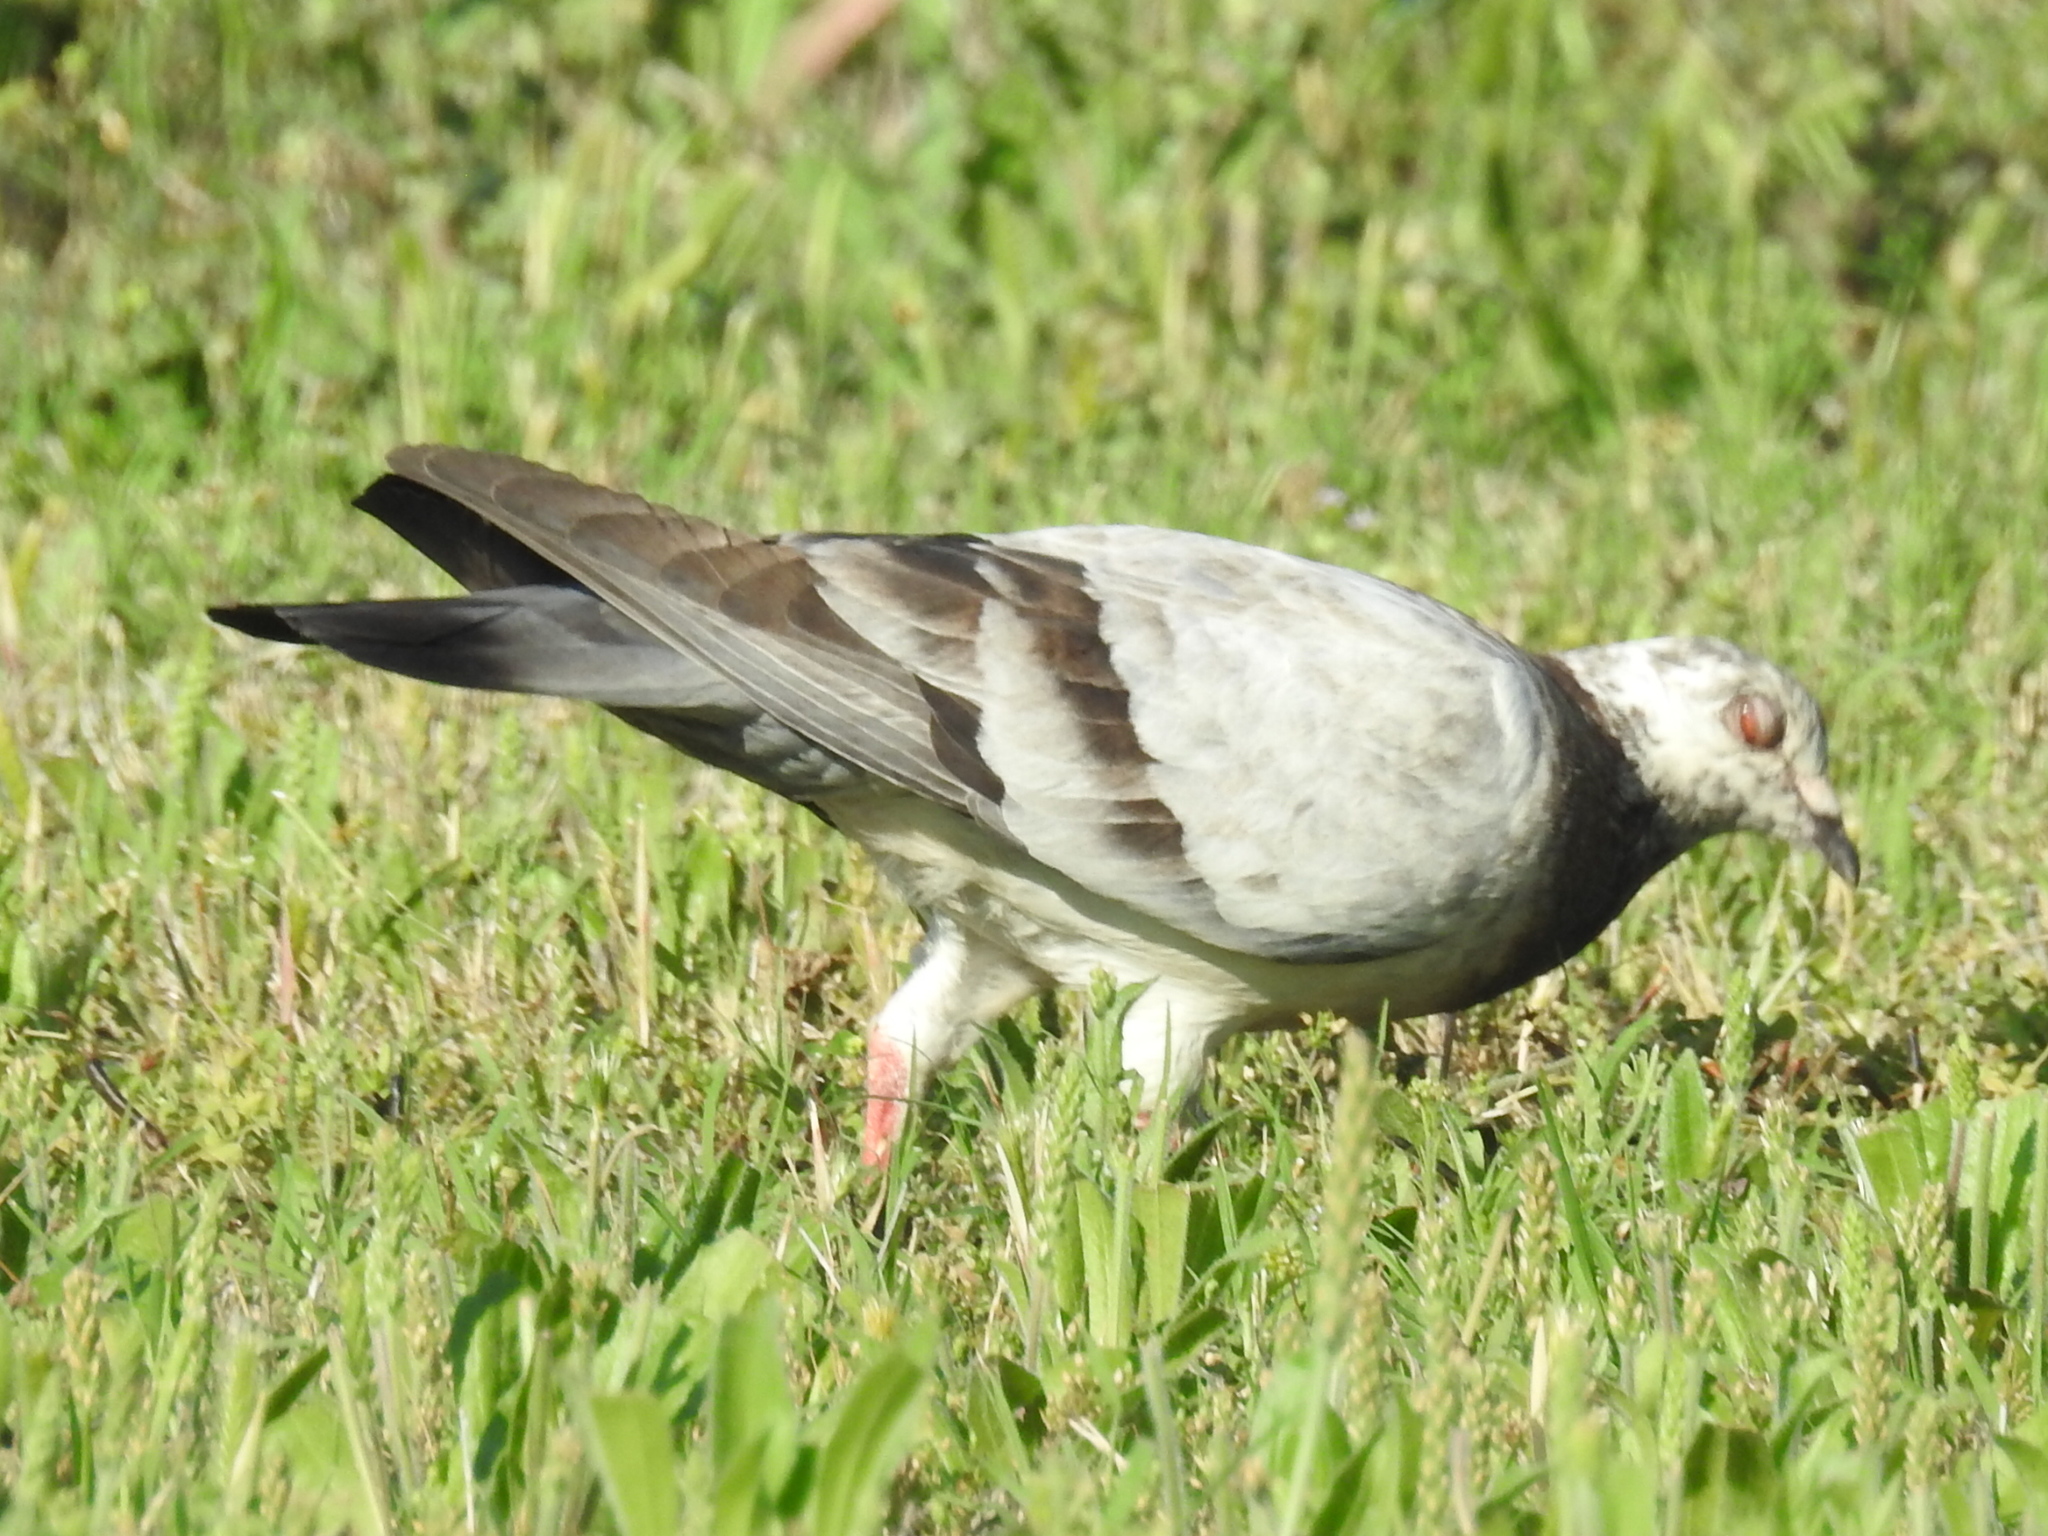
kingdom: Animalia
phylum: Chordata
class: Aves
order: Columbiformes
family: Columbidae
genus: Columba
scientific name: Columba livia
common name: Rock pigeon
